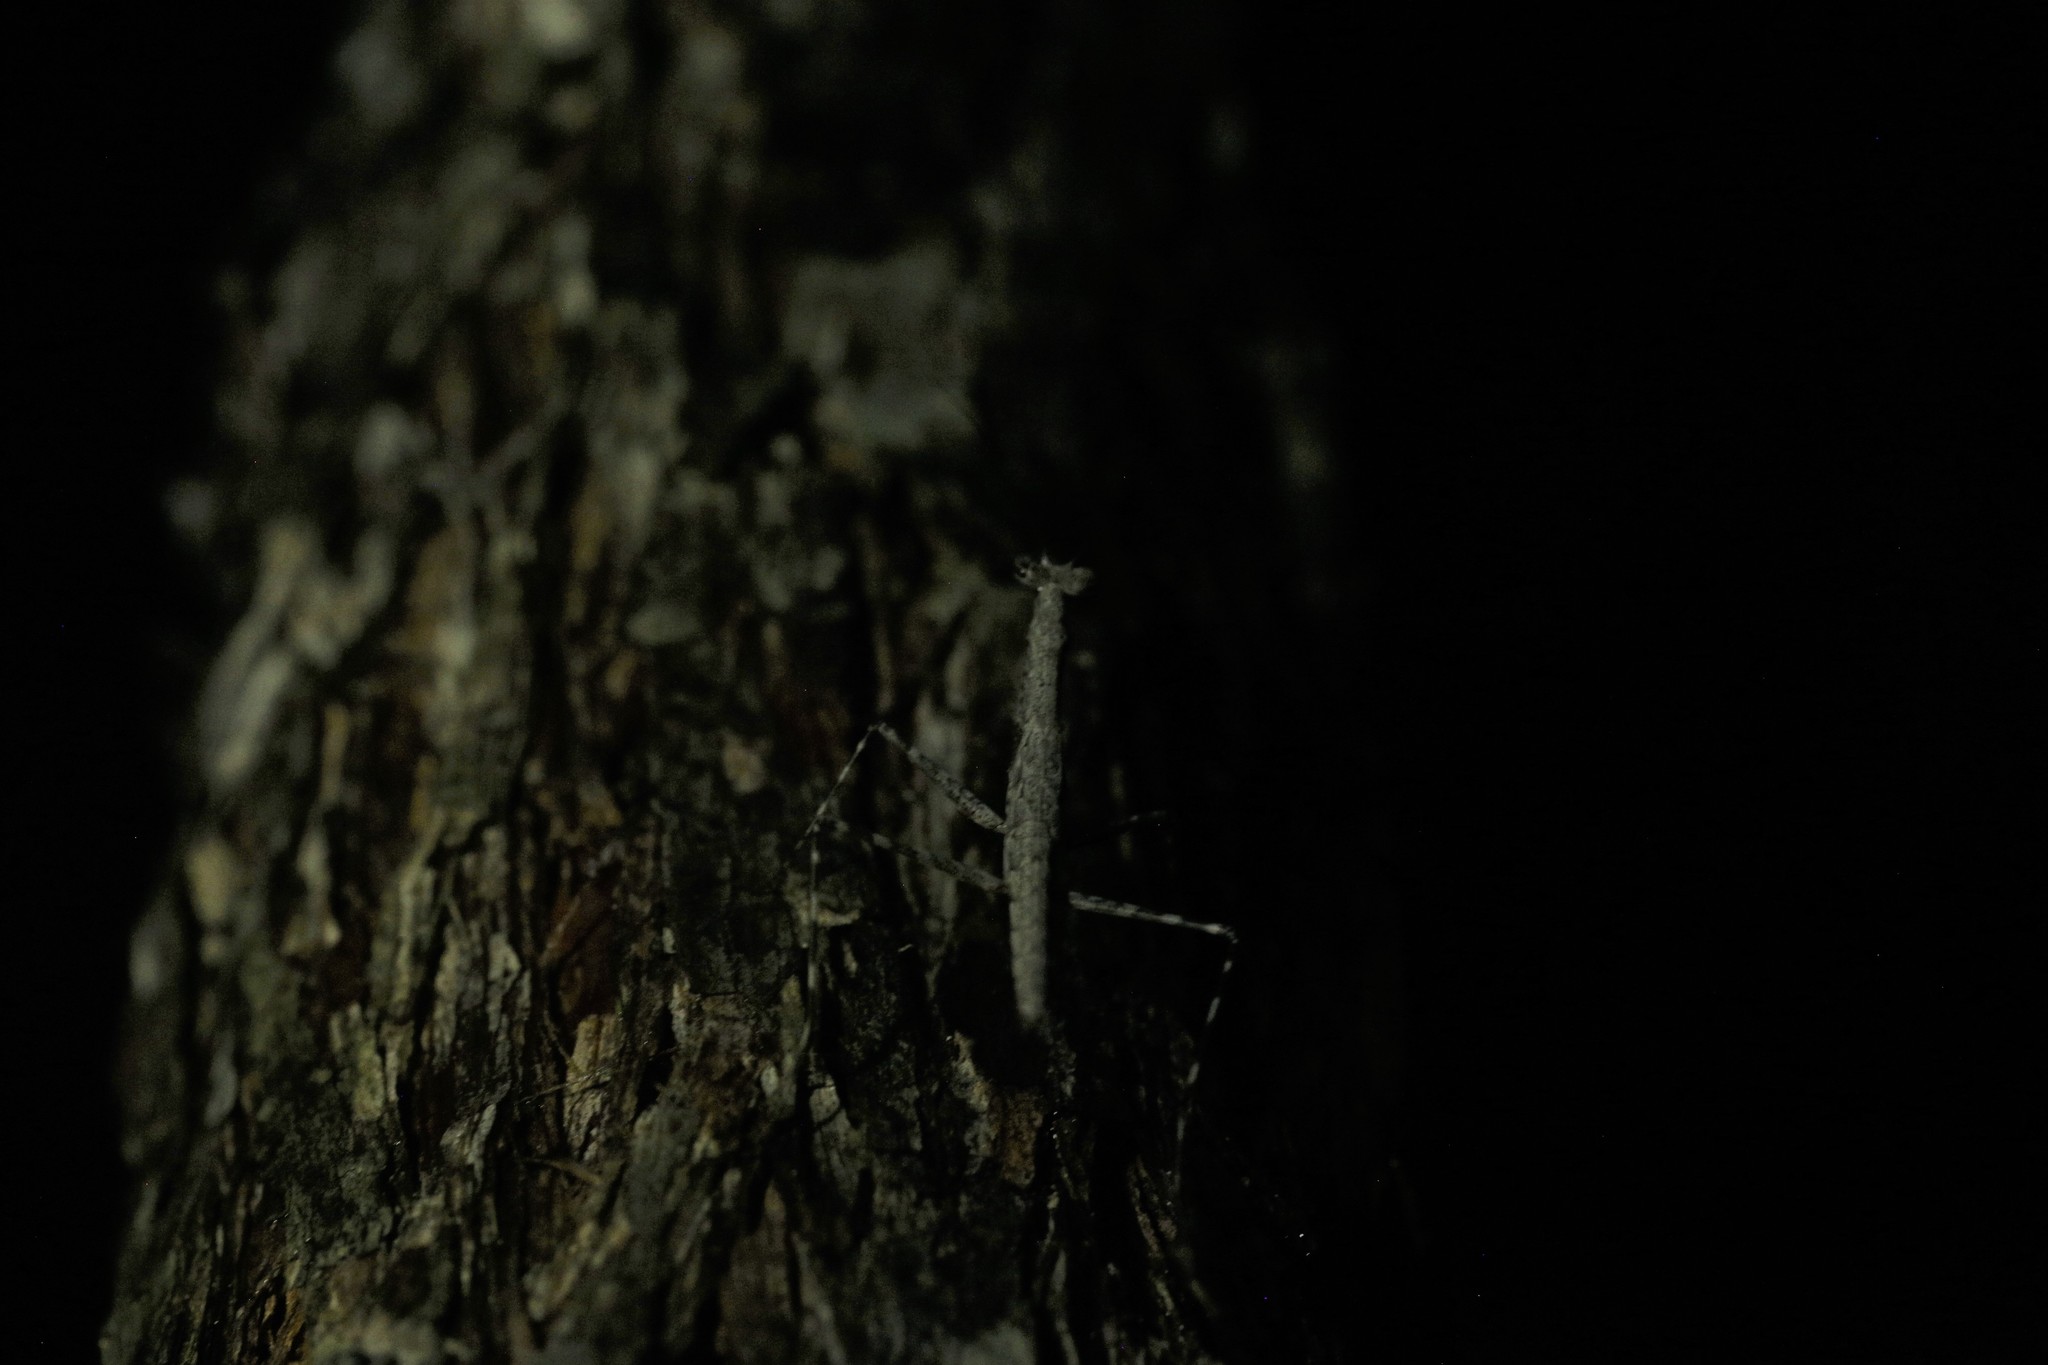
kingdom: Animalia
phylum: Arthropoda
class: Insecta
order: Mantodea
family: Nanomantidae
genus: Ciulfina
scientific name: Ciulfina biseriata
